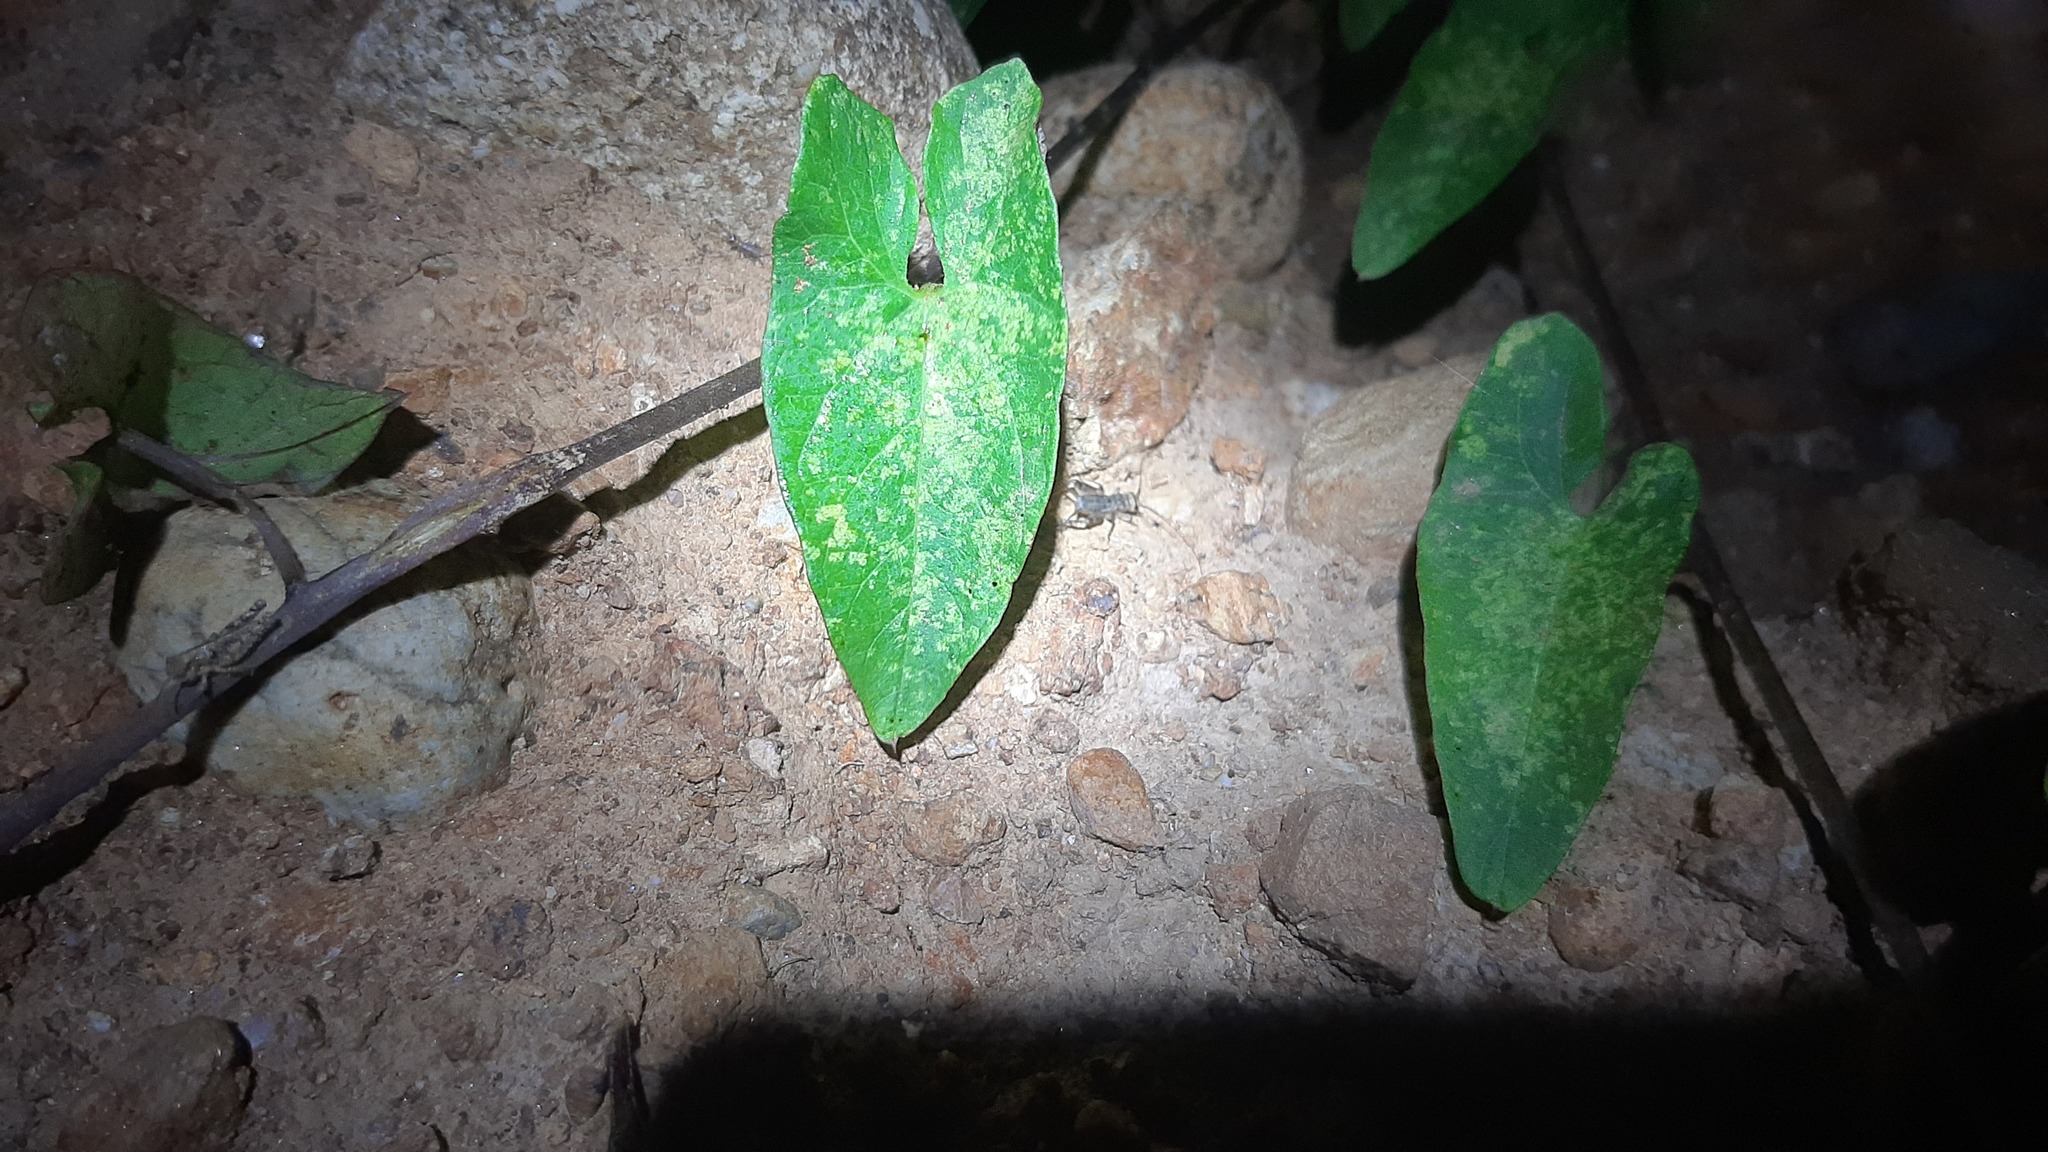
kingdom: Animalia
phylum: Arthropoda
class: Insecta
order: Orthoptera
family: Gryllidae
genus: Eumodicogryllus
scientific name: Eumodicogryllus bordigalensis
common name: Bordeaux cricket
